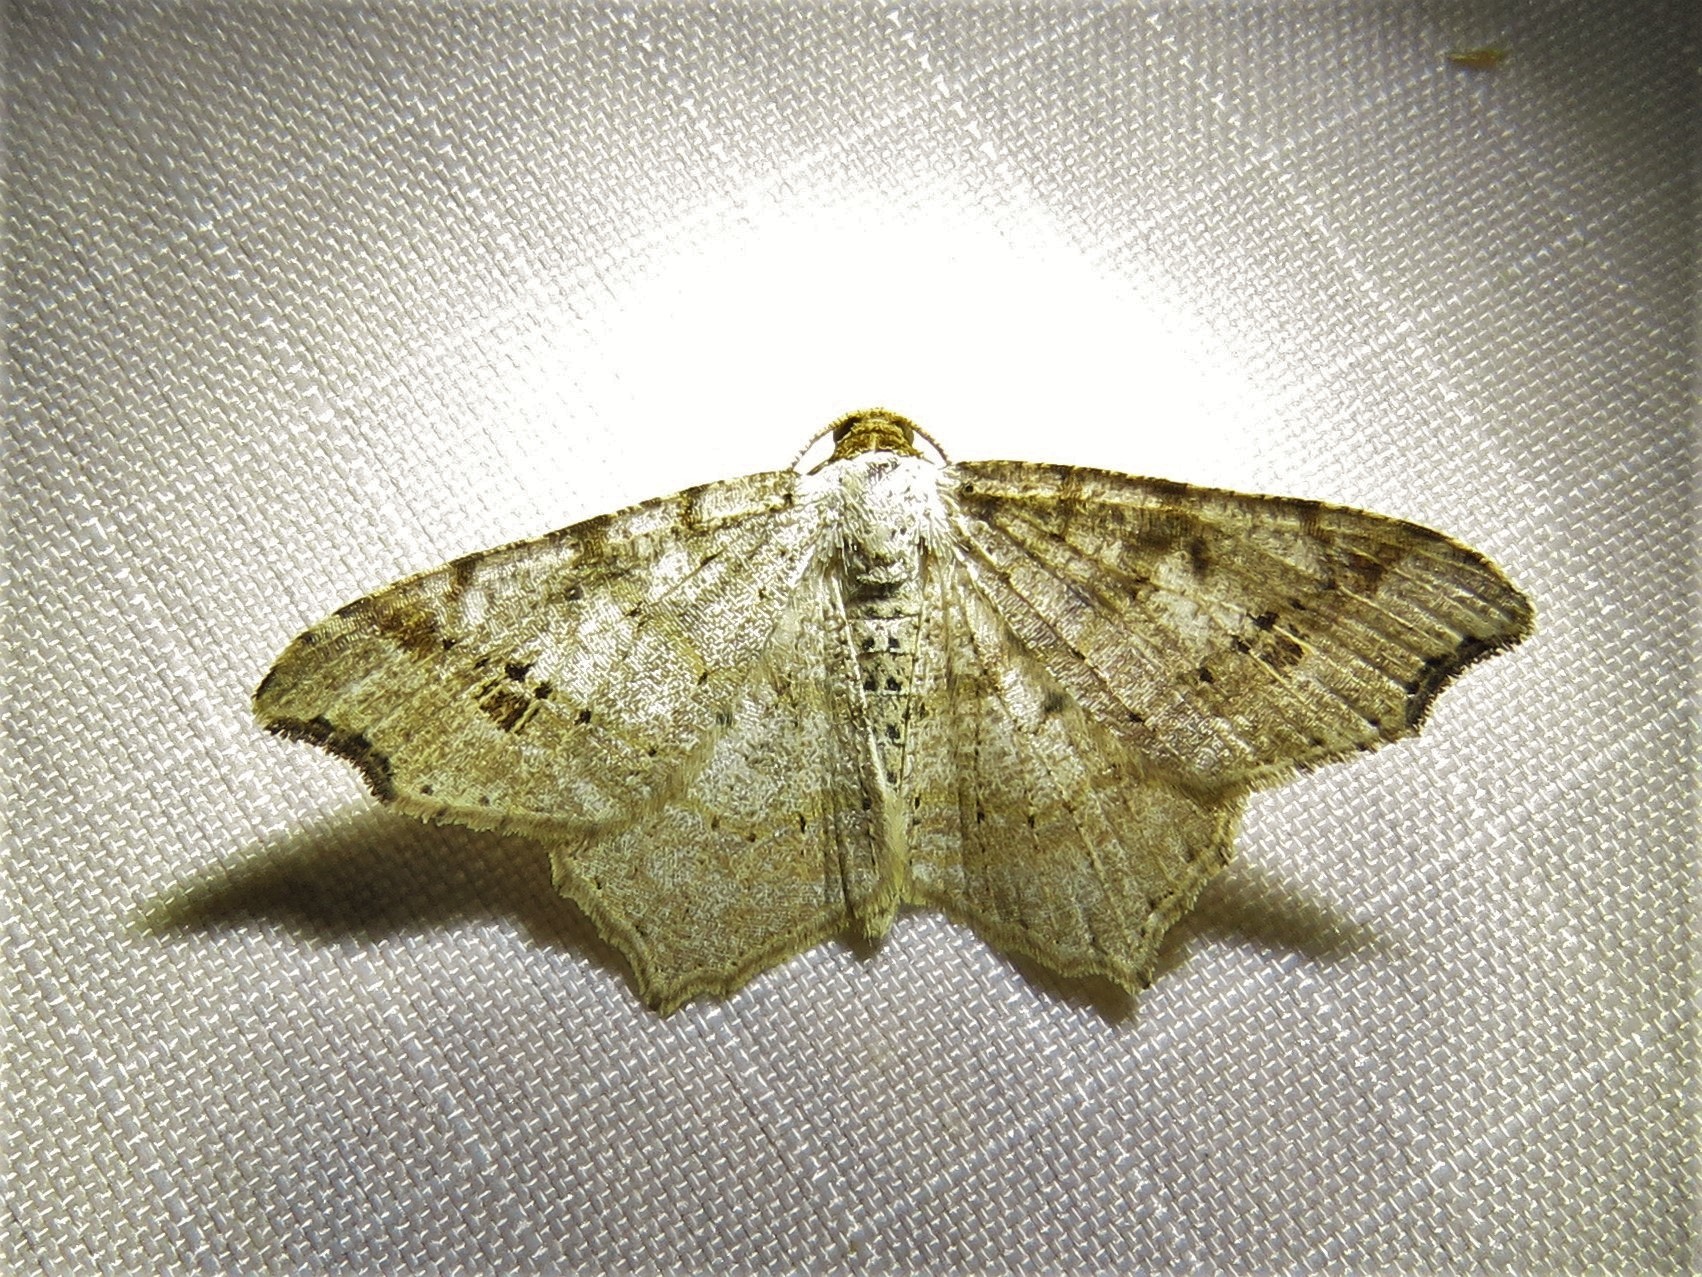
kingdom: Animalia
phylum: Arthropoda
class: Insecta
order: Lepidoptera
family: Geometridae
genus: Macaria
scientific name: Macaria abydata
